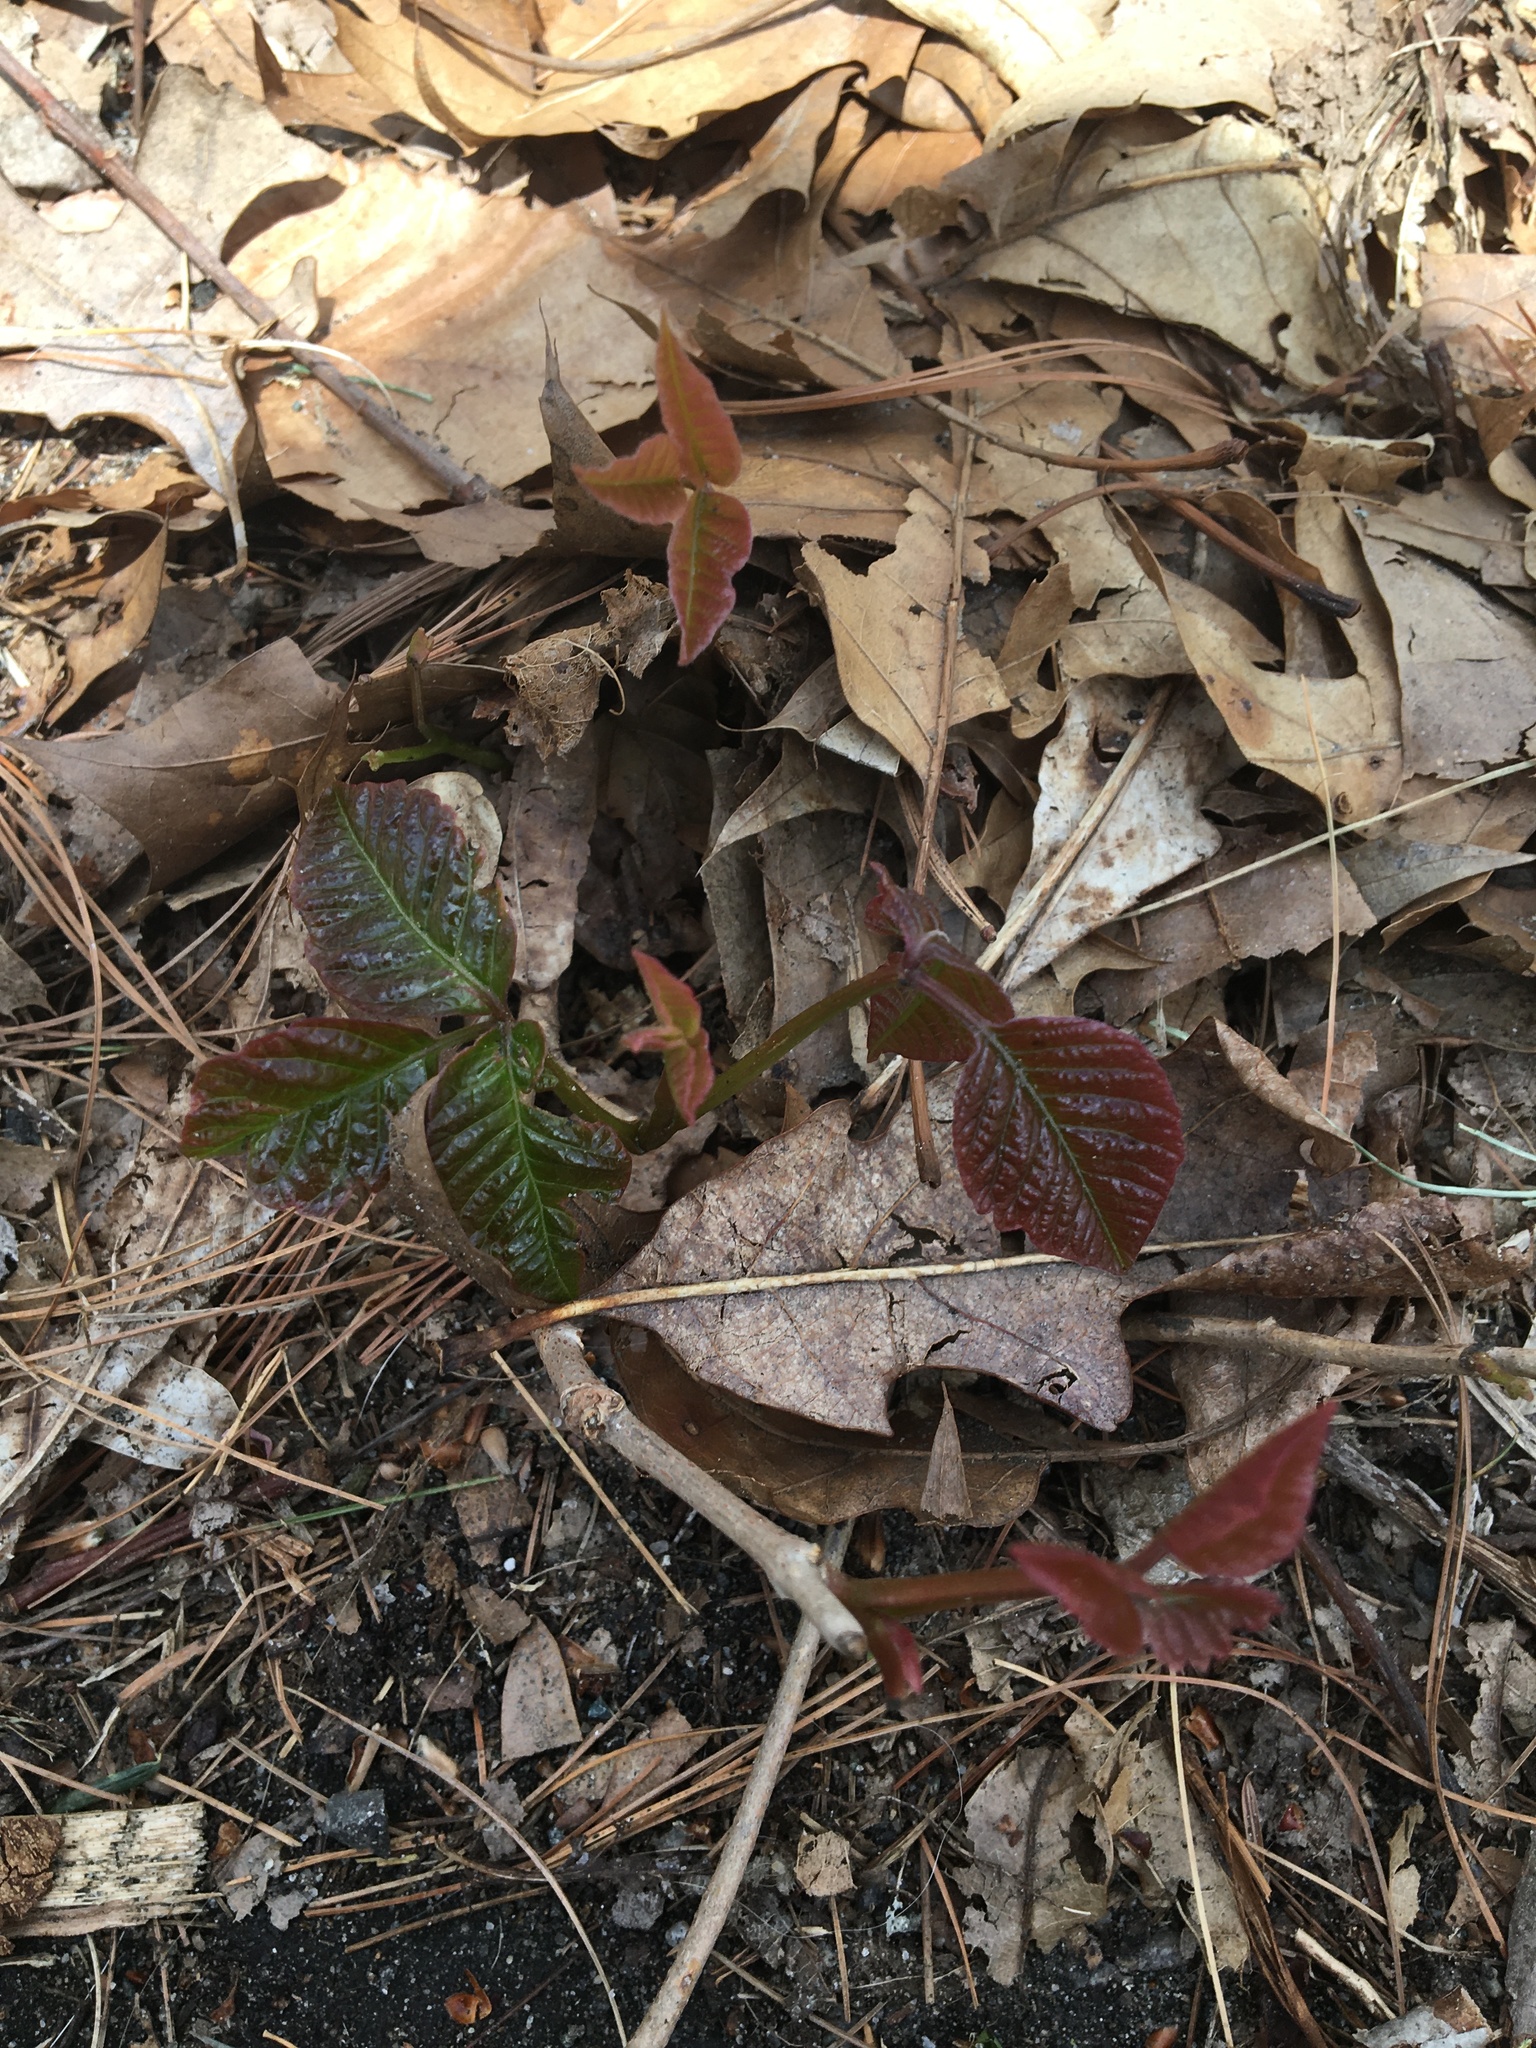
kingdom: Plantae
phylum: Tracheophyta
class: Magnoliopsida
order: Sapindales
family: Anacardiaceae
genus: Toxicodendron
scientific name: Toxicodendron radicans
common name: Poison ivy
